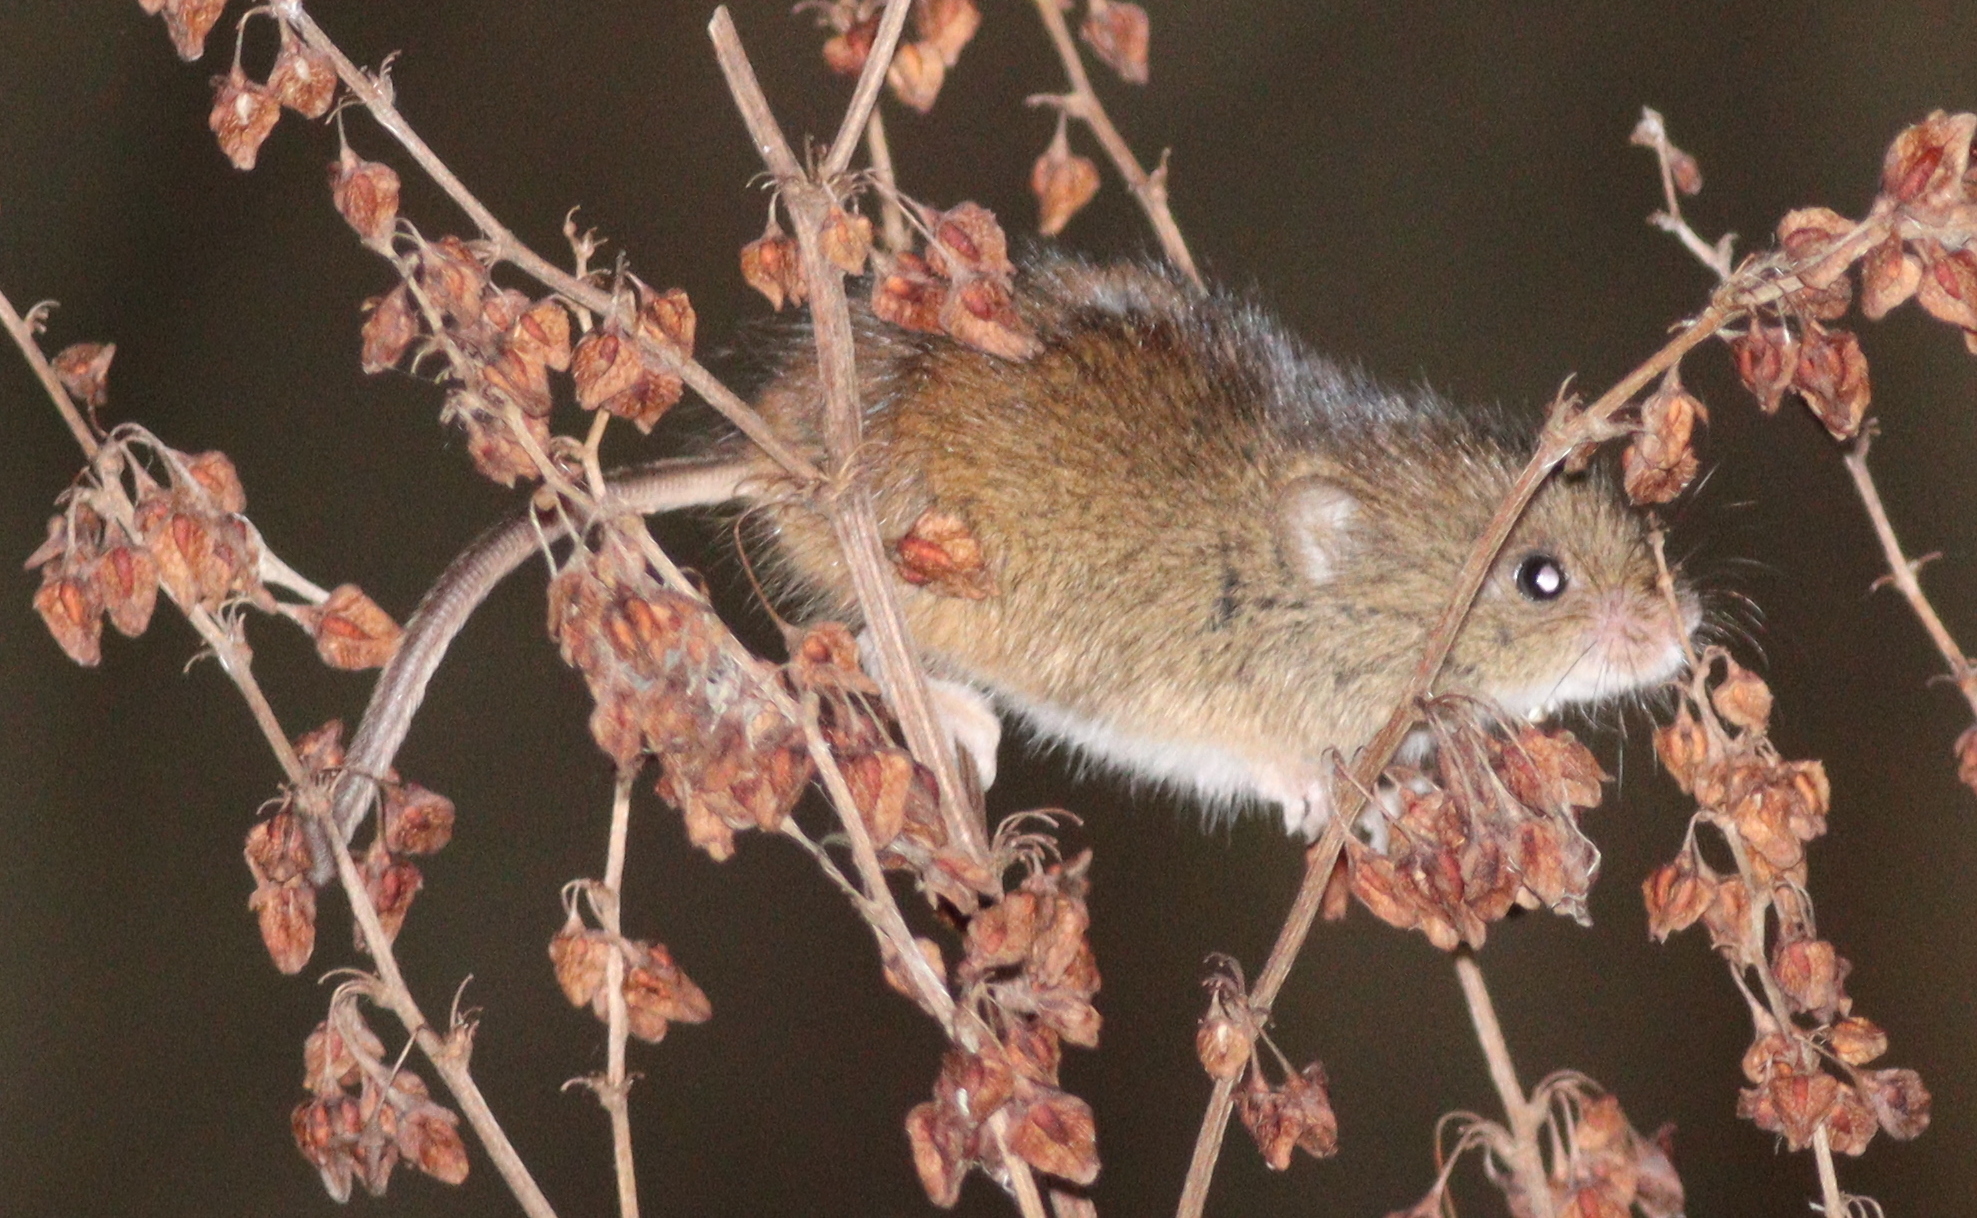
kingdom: Animalia
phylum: Chordata
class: Mammalia
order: Rodentia
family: Muridae
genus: Micromys
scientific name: Micromys minutus
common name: Harvest mouse
